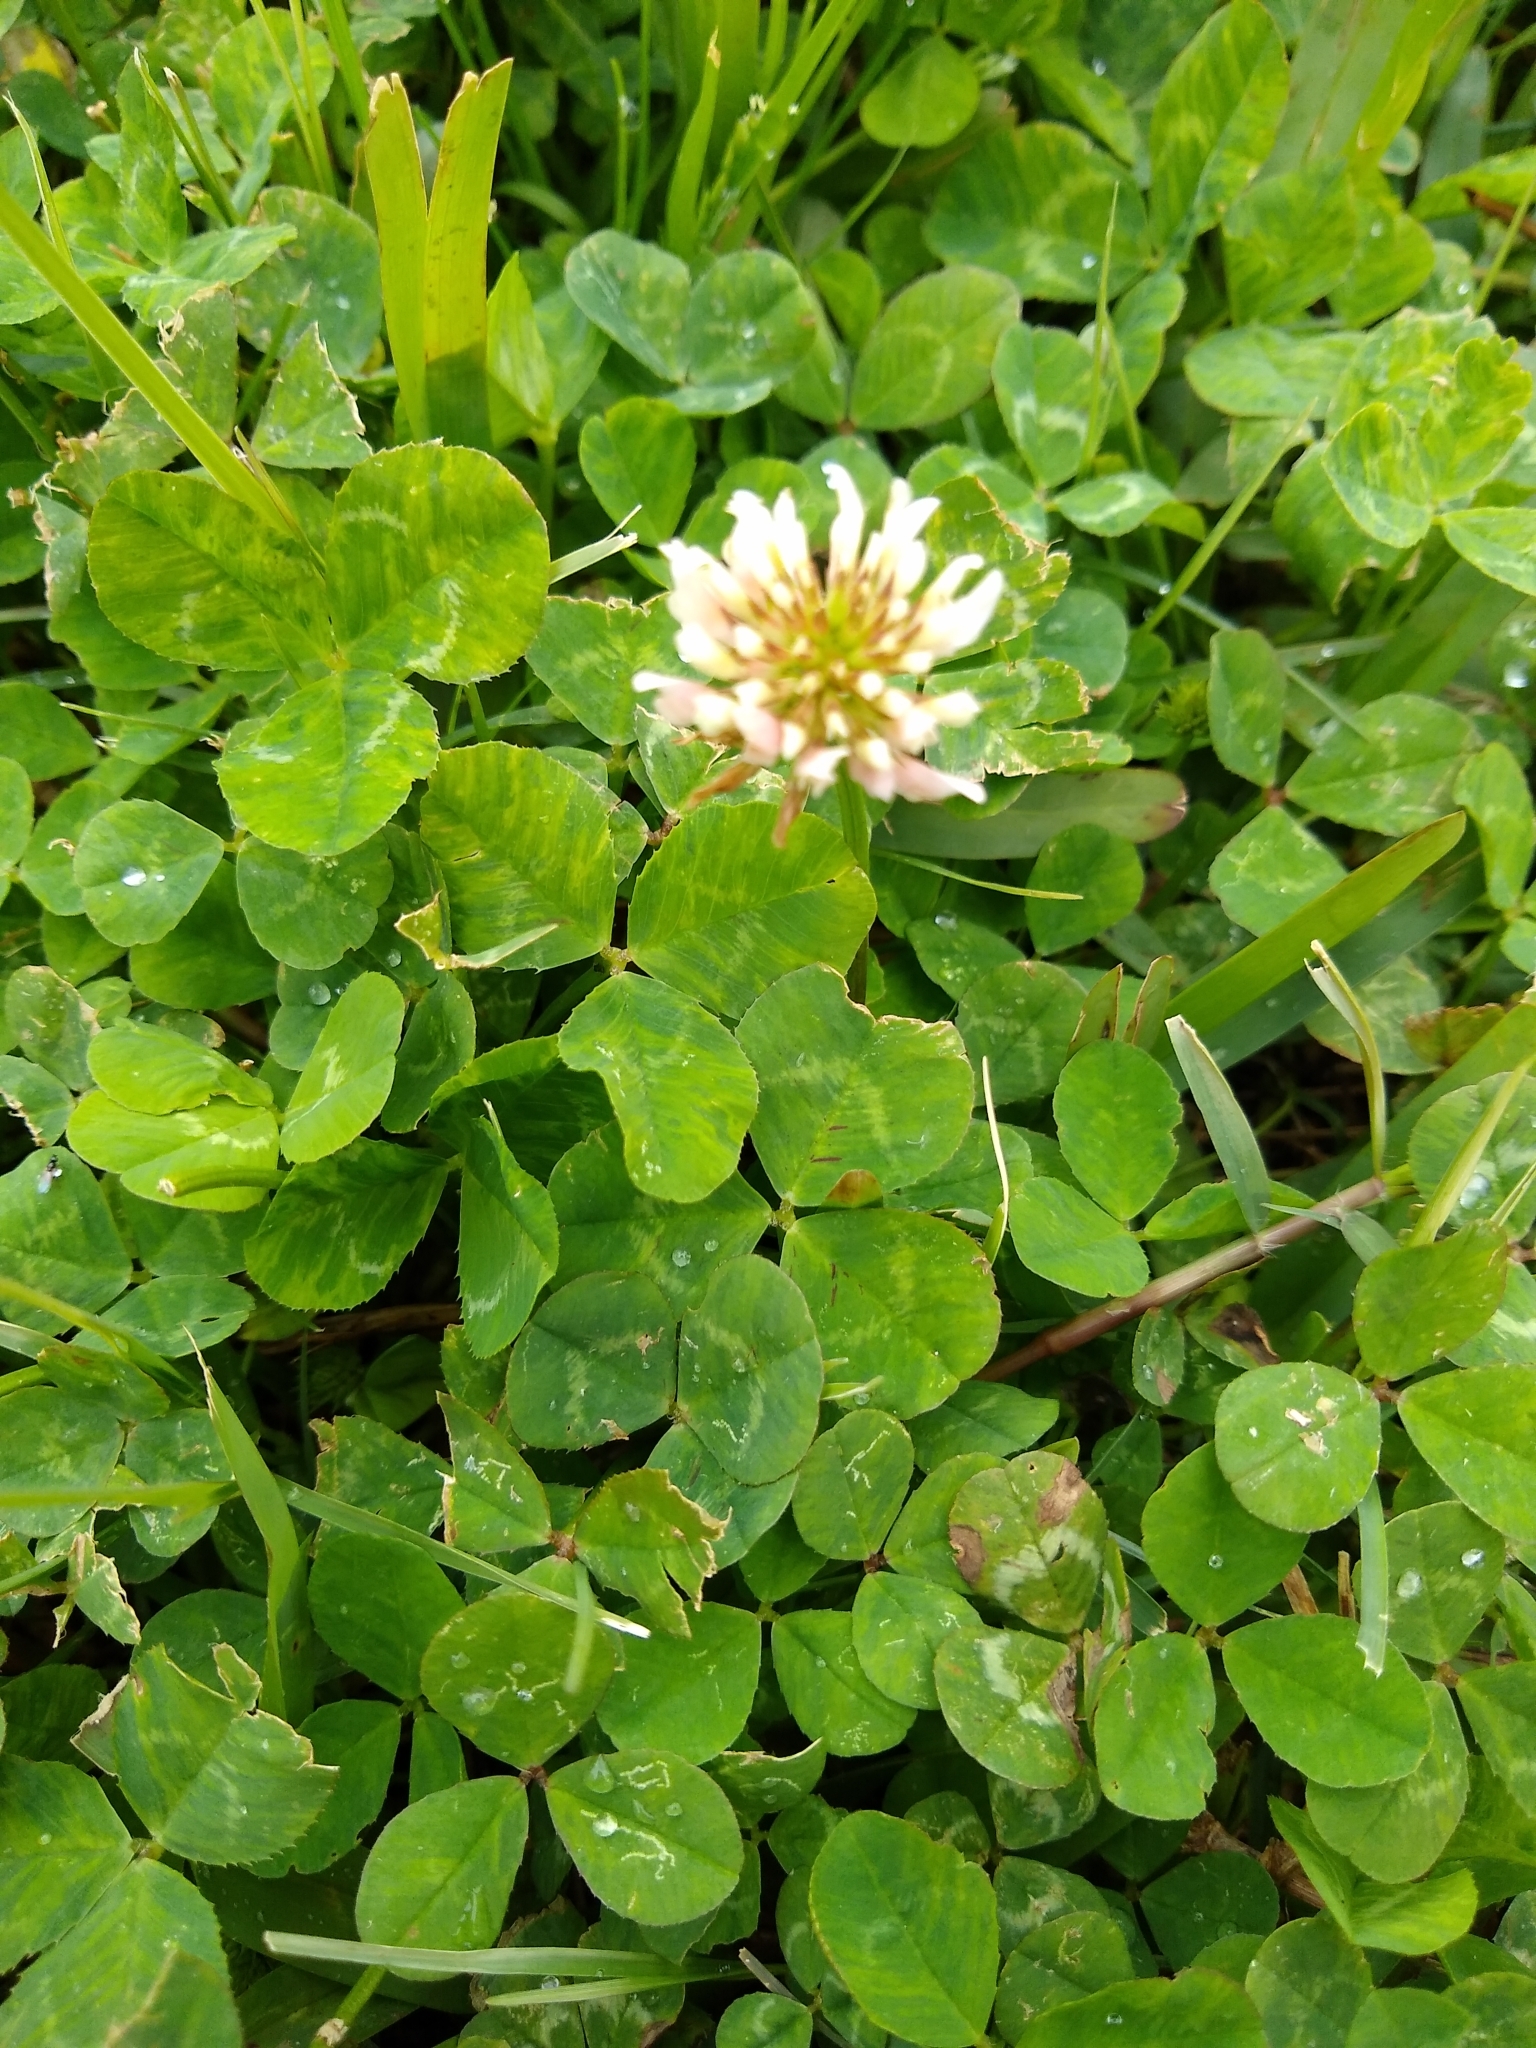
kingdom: Plantae
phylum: Tracheophyta
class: Magnoliopsida
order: Fabales
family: Fabaceae
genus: Trifolium
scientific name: Trifolium repens
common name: White clover
